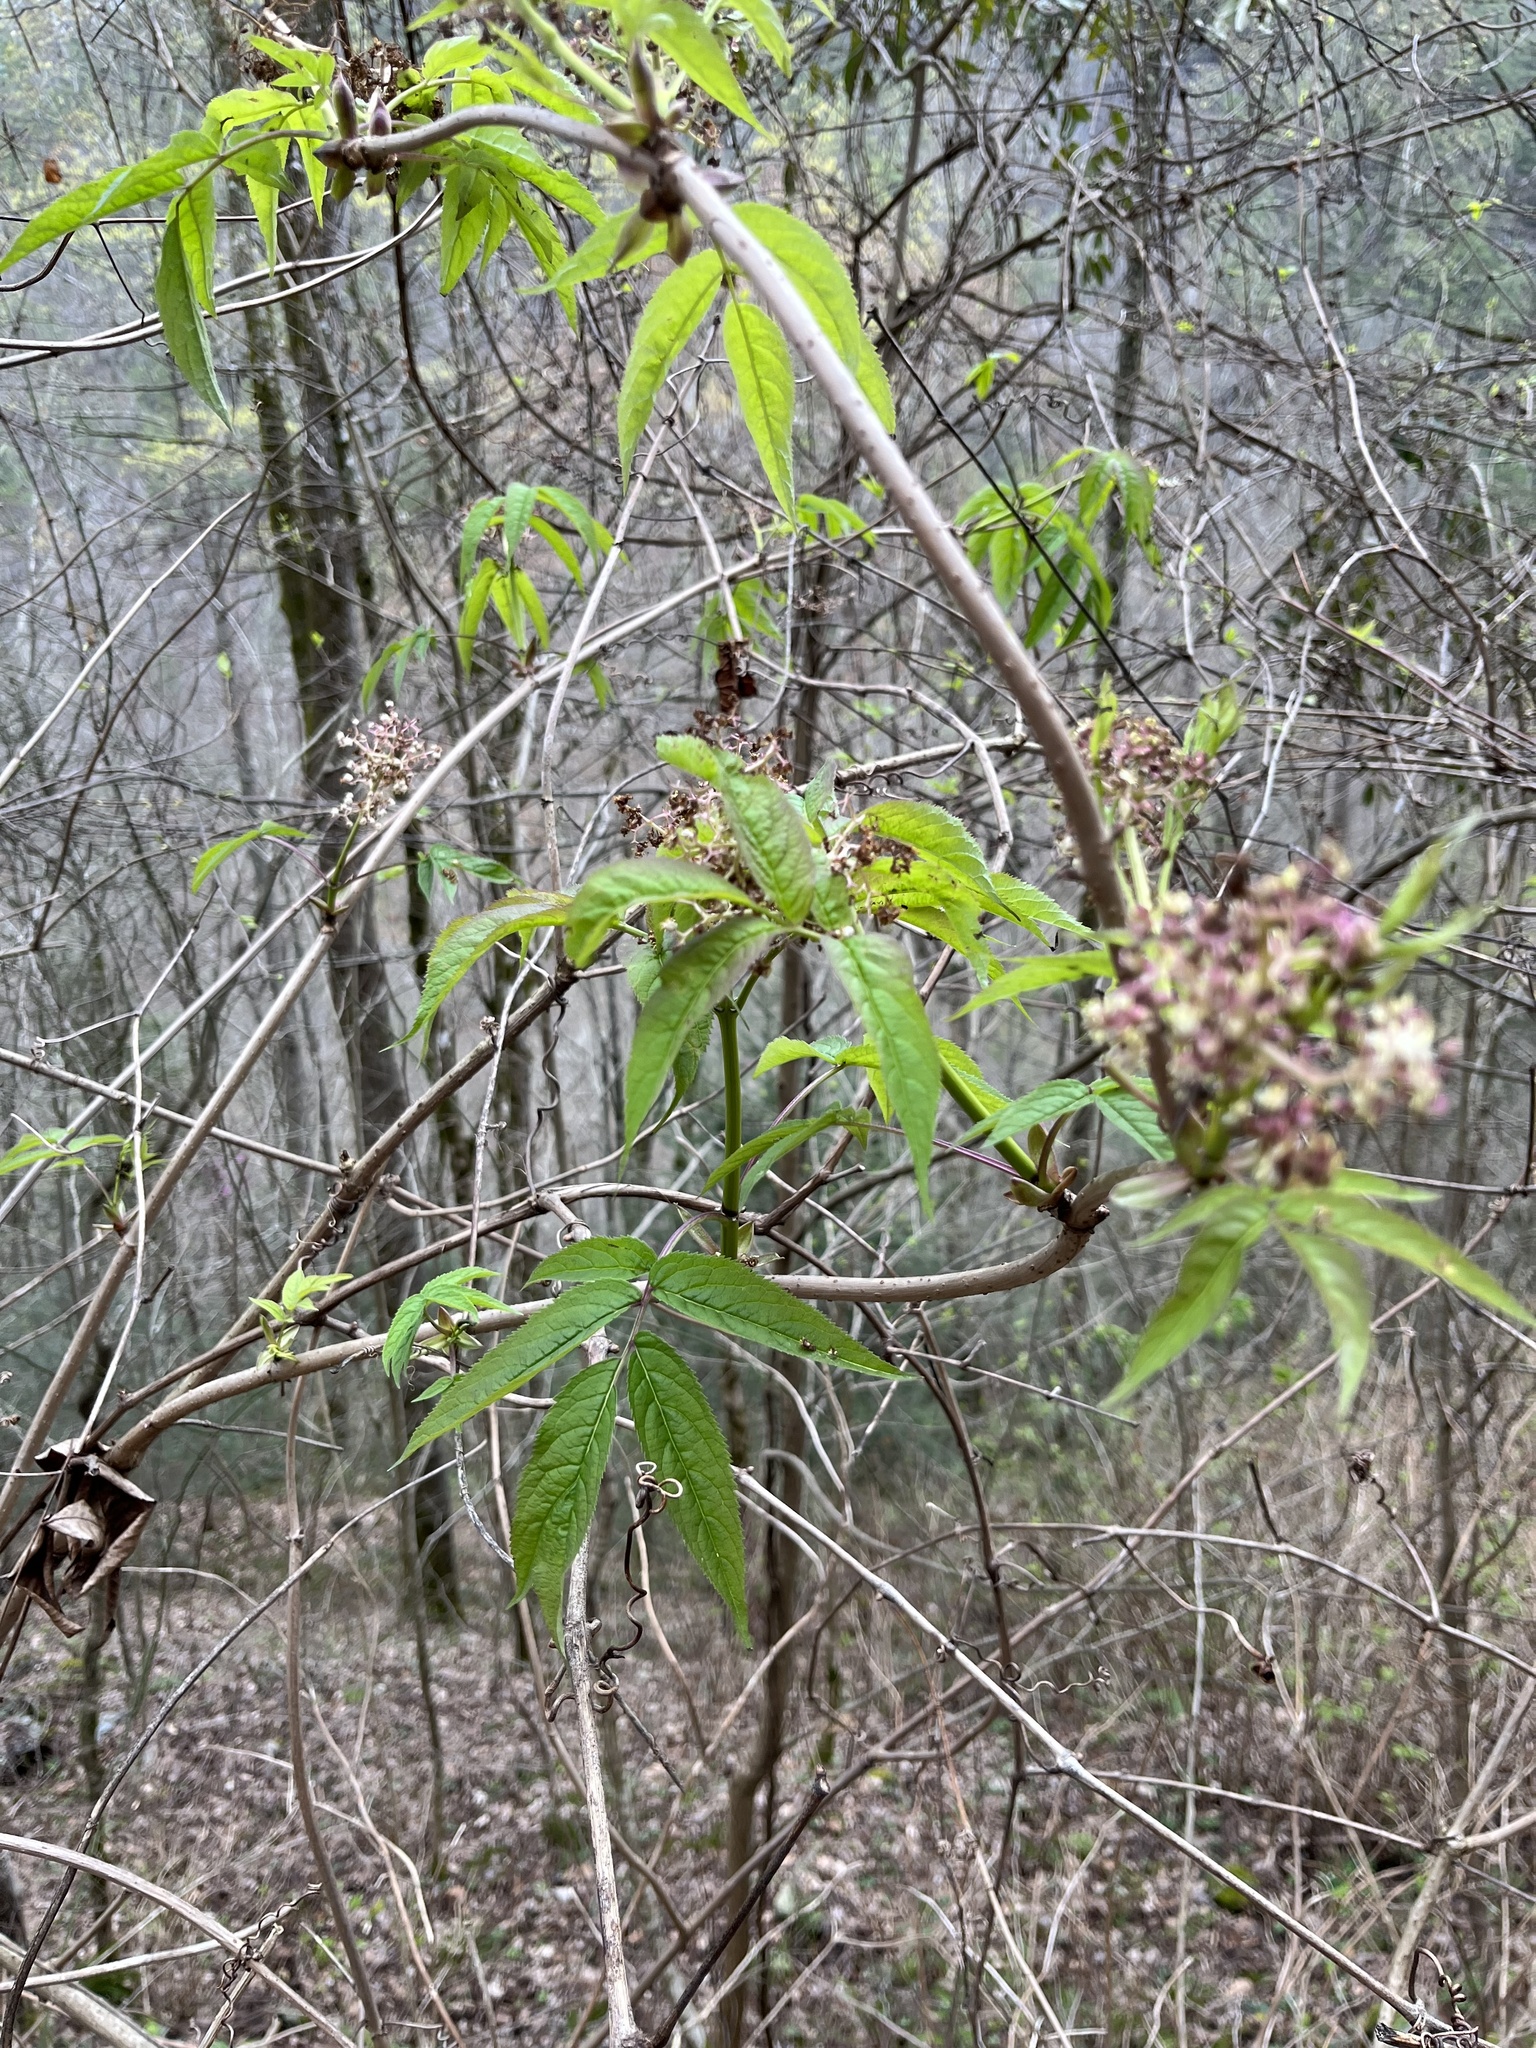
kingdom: Plantae
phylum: Tracheophyta
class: Magnoliopsida
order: Dipsacales
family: Viburnaceae
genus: Sambucus
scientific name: Sambucus racemosa
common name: Red-berried elder
